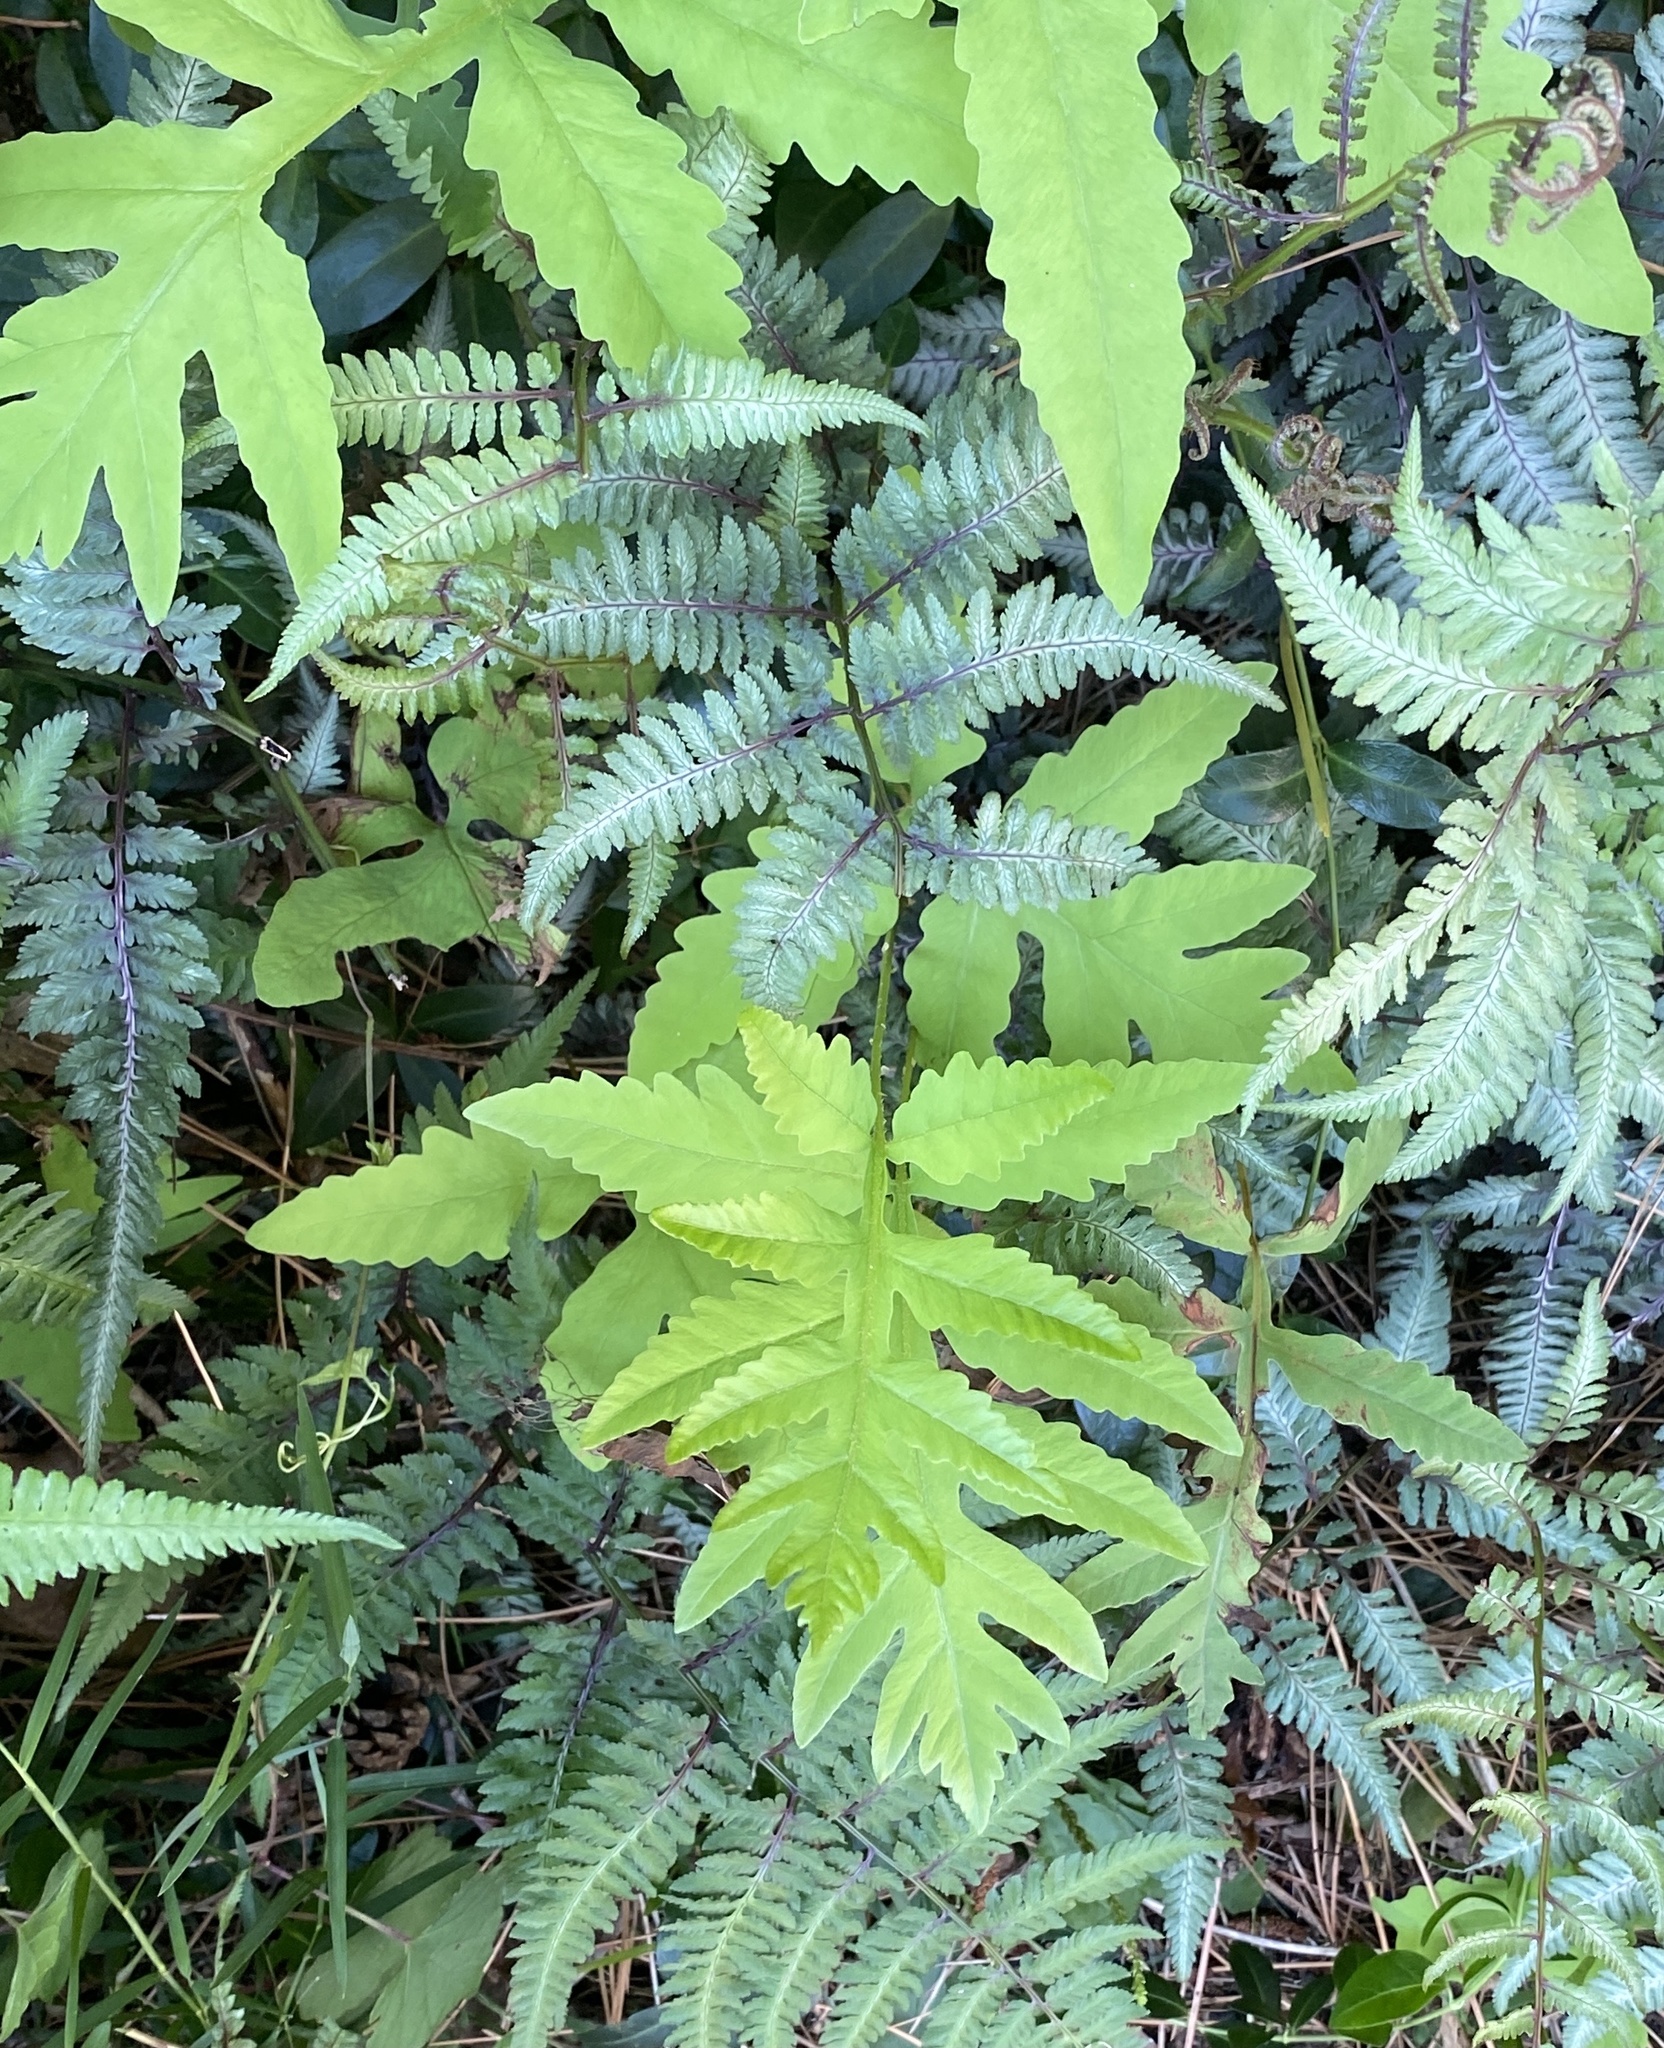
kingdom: Plantae
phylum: Tracheophyta
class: Polypodiopsida
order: Polypodiales
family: Onocleaceae
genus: Onoclea
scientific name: Onoclea sensibilis
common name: Sensitive fern
